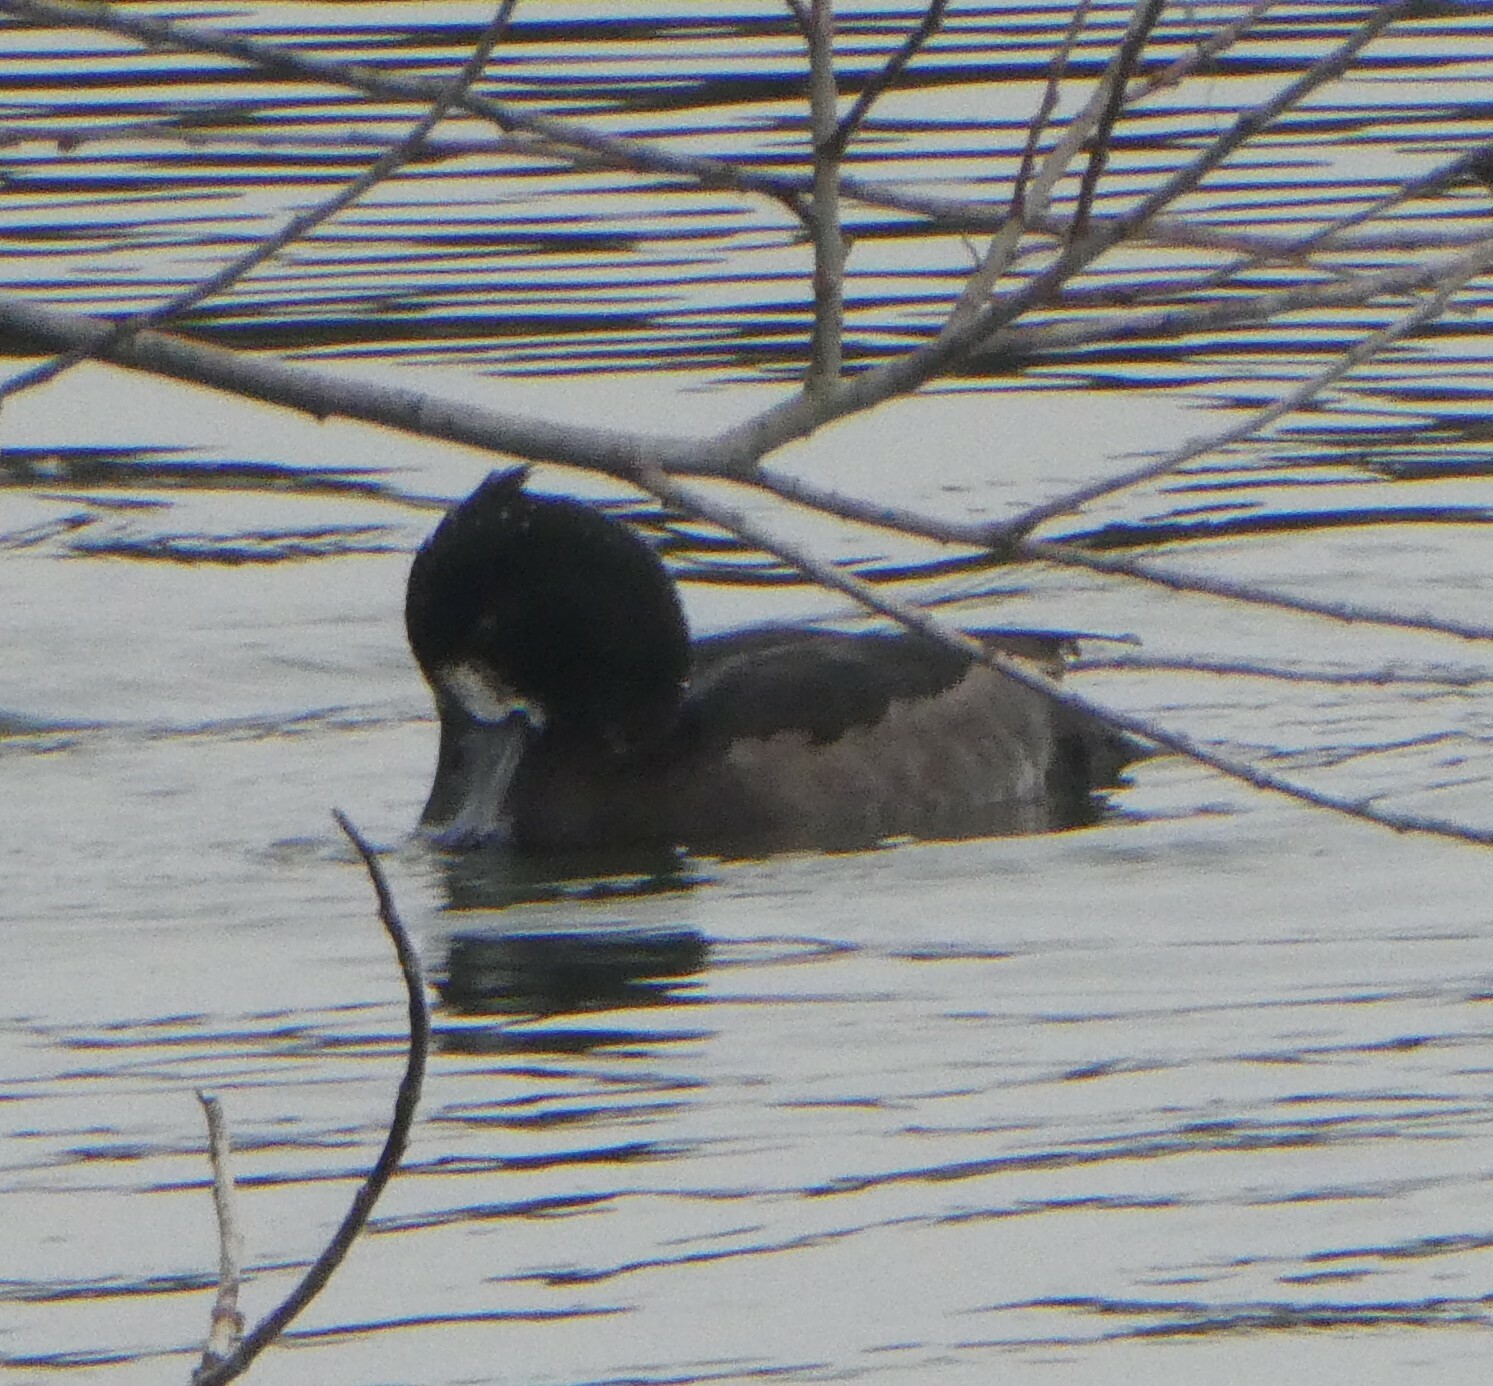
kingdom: Animalia
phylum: Chordata
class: Aves
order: Anseriformes
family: Anatidae
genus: Aythya
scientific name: Aythya fuligula
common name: Tufted duck
